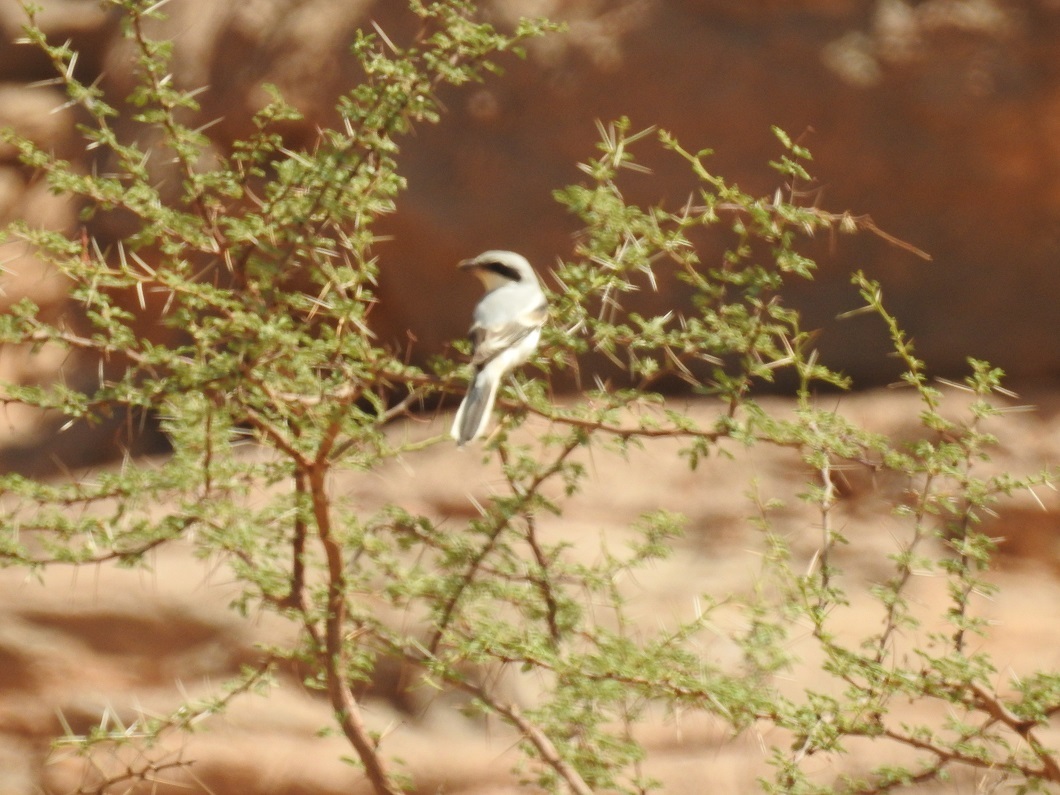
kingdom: Animalia
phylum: Chordata
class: Aves
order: Passeriformes
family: Laniidae
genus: Lanius
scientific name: Lanius excubitor
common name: Great grey shrike
